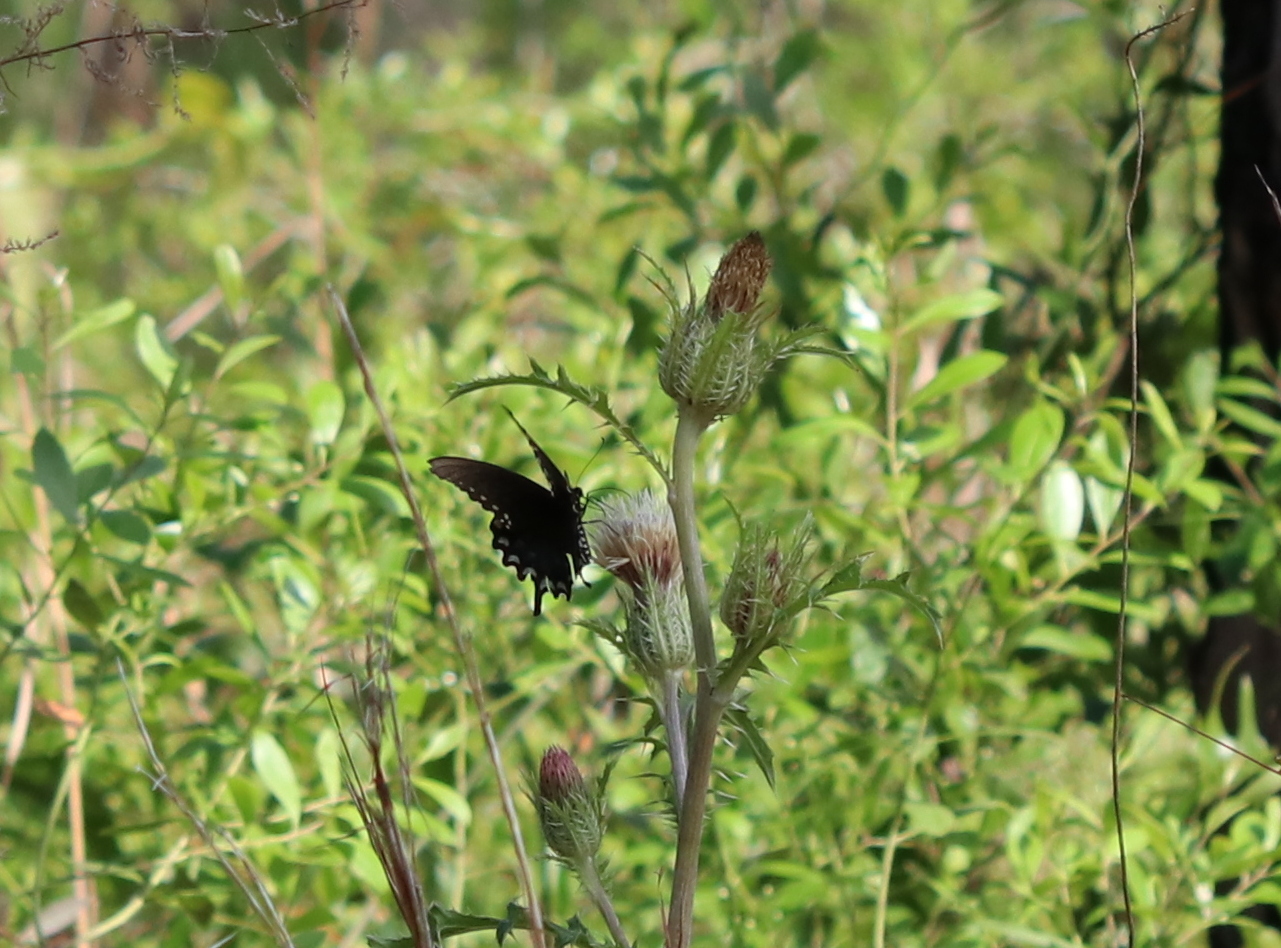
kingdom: Animalia
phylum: Arthropoda
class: Insecta
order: Lepidoptera
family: Papilionidae
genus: Papilio
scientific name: Papilio troilus
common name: Spicebush swallowtail
